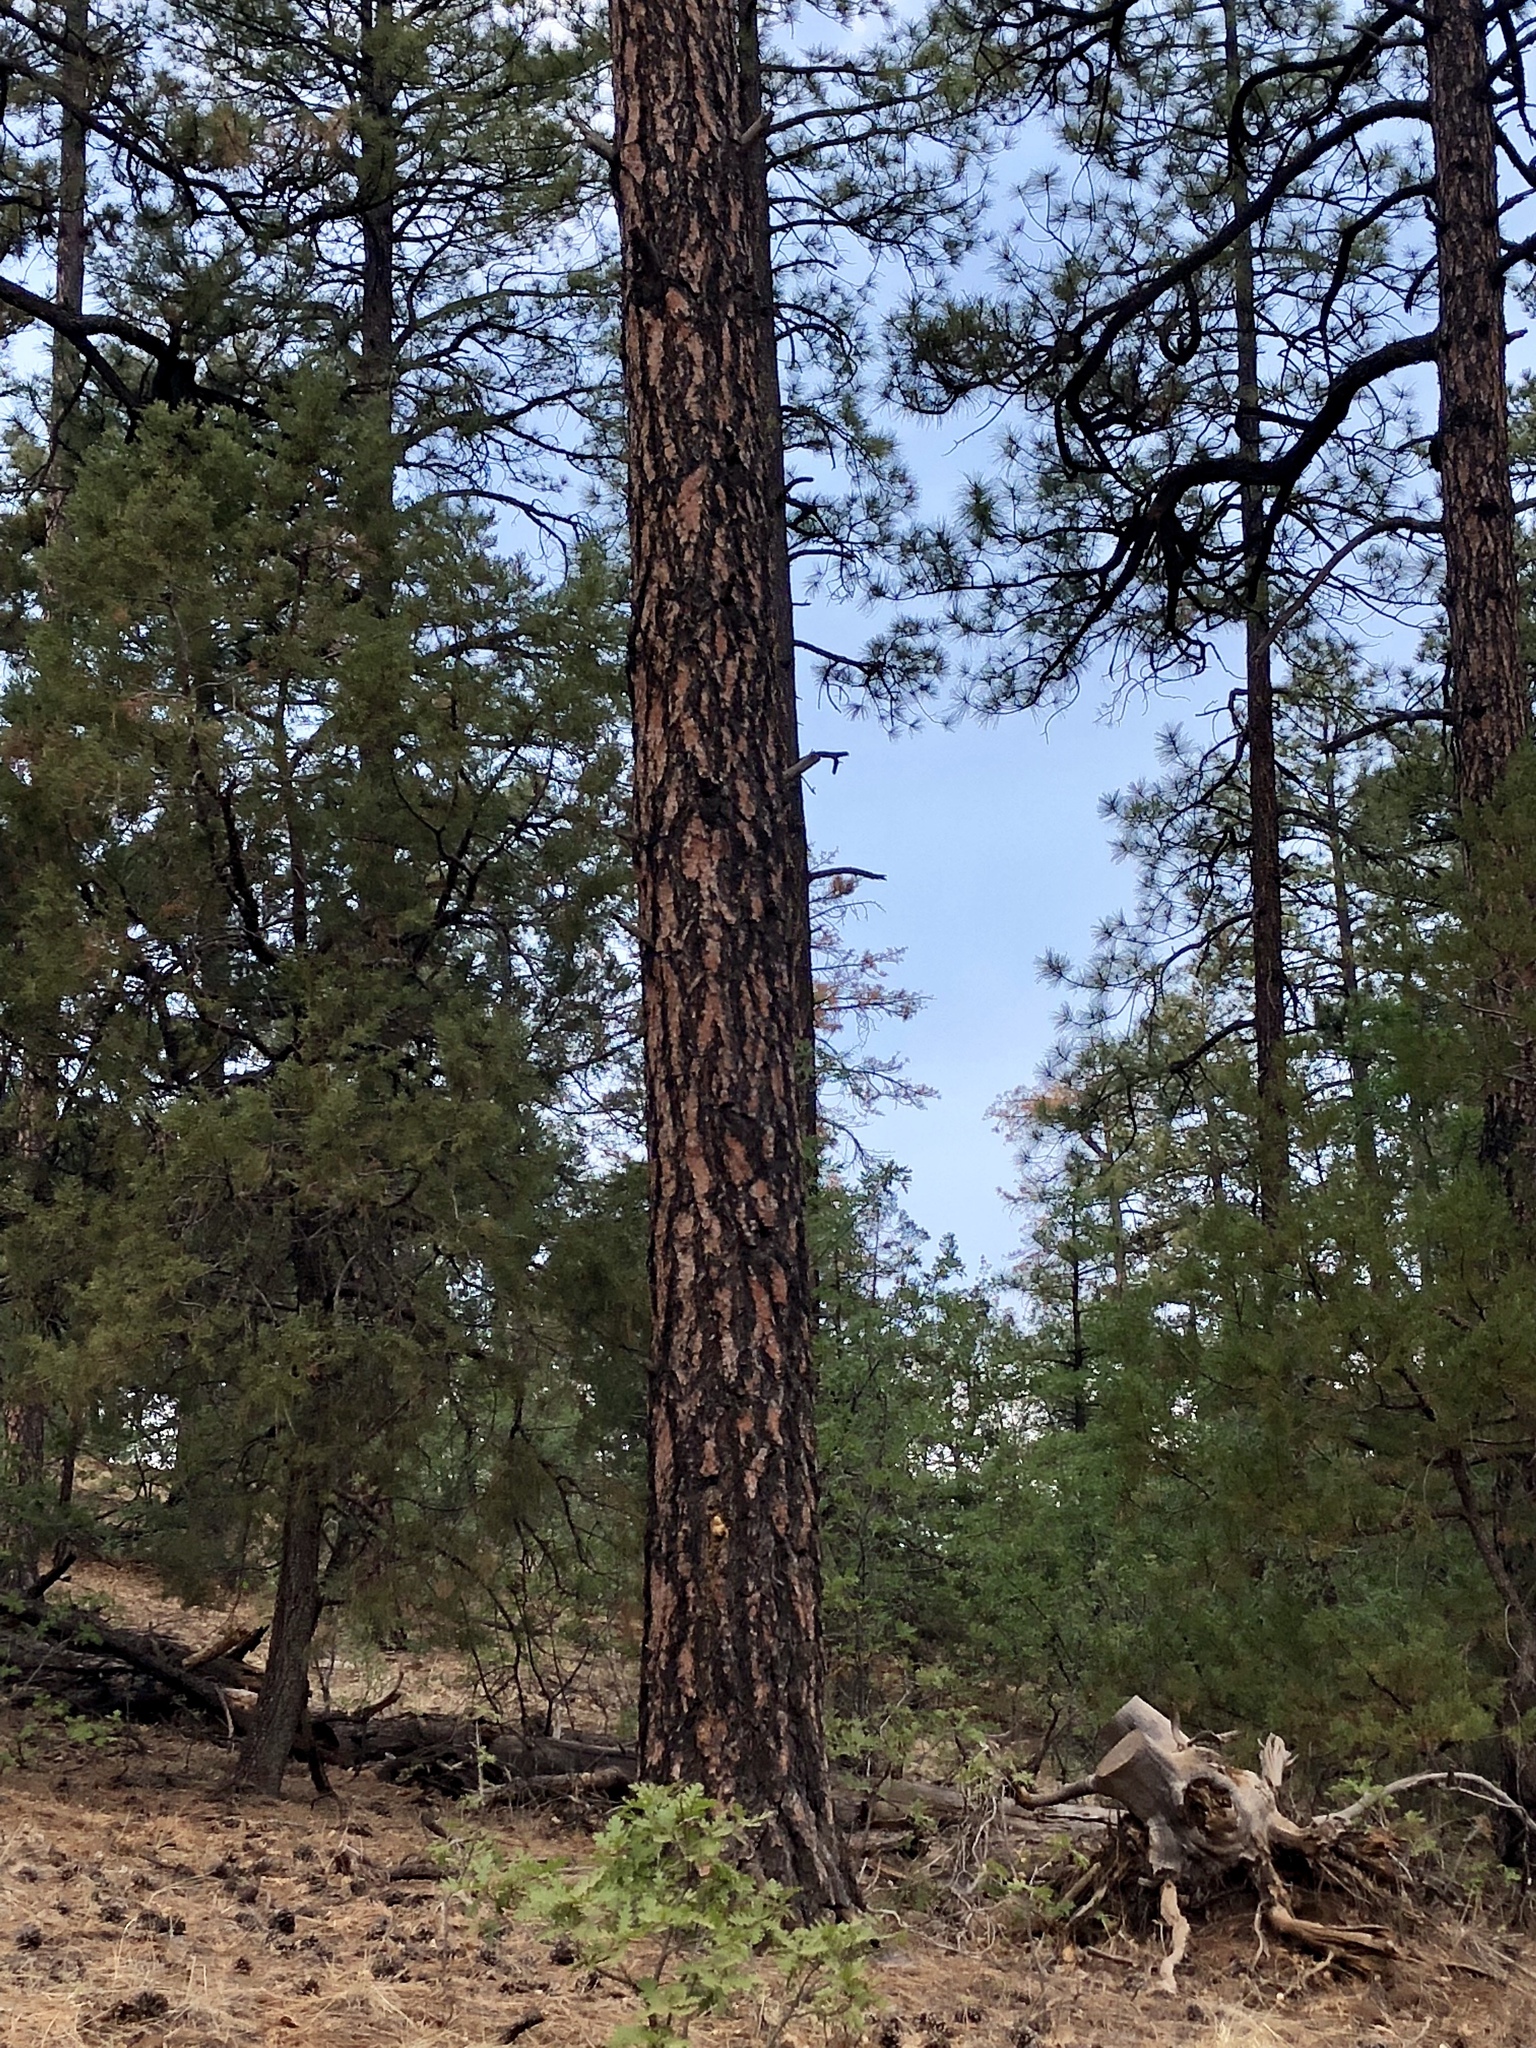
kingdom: Plantae
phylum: Tracheophyta
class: Pinopsida
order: Pinales
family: Pinaceae
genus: Pinus
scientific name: Pinus ponderosa
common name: Western yellow-pine
